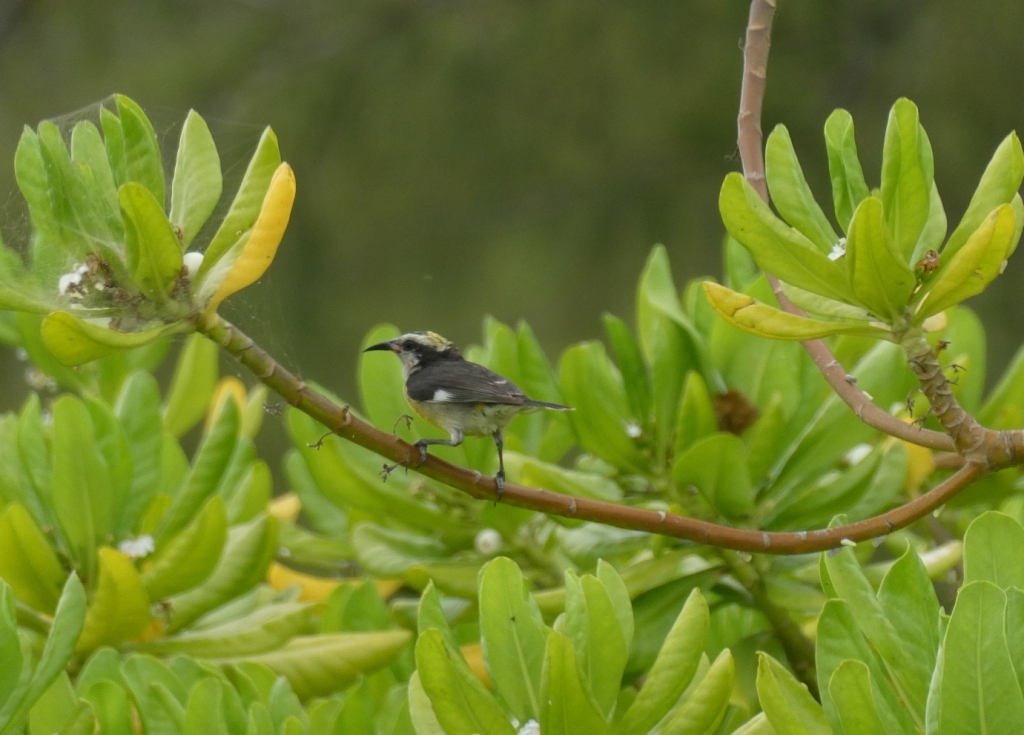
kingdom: Animalia
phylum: Chordata
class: Aves
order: Passeriformes
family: Thraupidae
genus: Coereba
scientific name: Coereba flaveola
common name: Bananaquit
